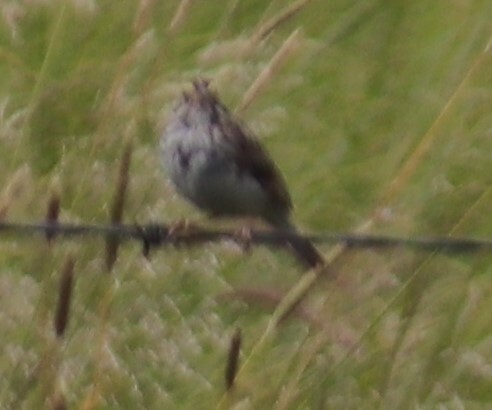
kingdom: Animalia
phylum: Chordata
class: Aves
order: Passeriformes
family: Passerellidae
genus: Passerculus
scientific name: Passerculus sandwichensis
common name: Savannah sparrow
